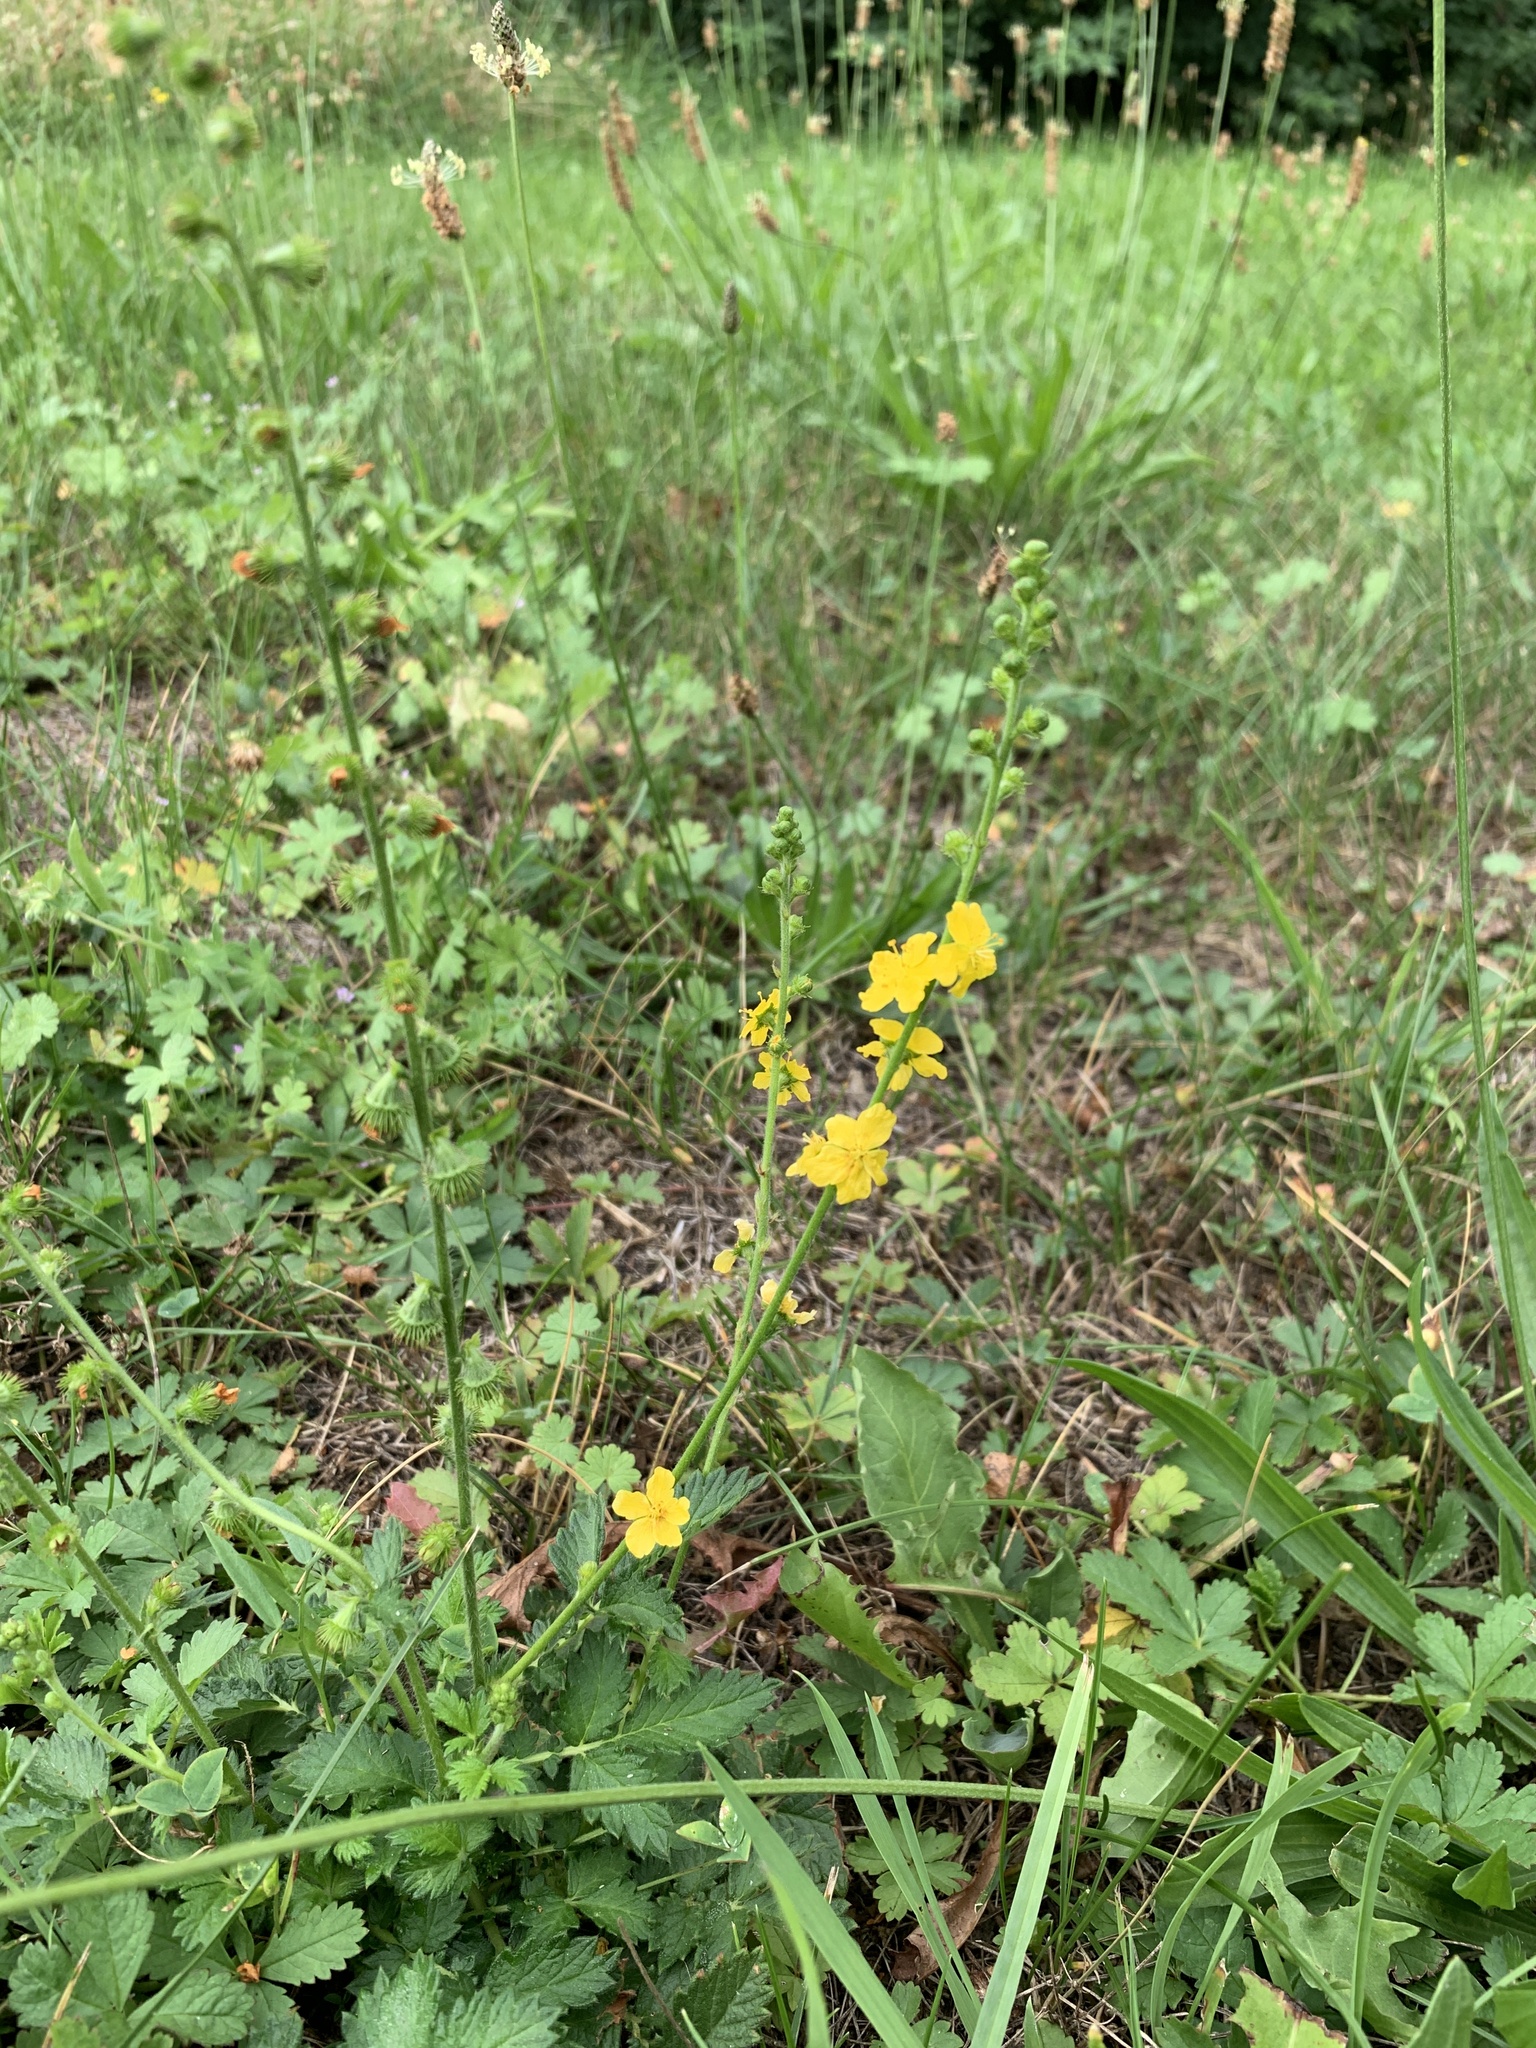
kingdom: Plantae
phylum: Tracheophyta
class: Magnoliopsida
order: Rosales
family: Rosaceae
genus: Agrimonia
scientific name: Agrimonia eupatoria
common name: Agrimony
